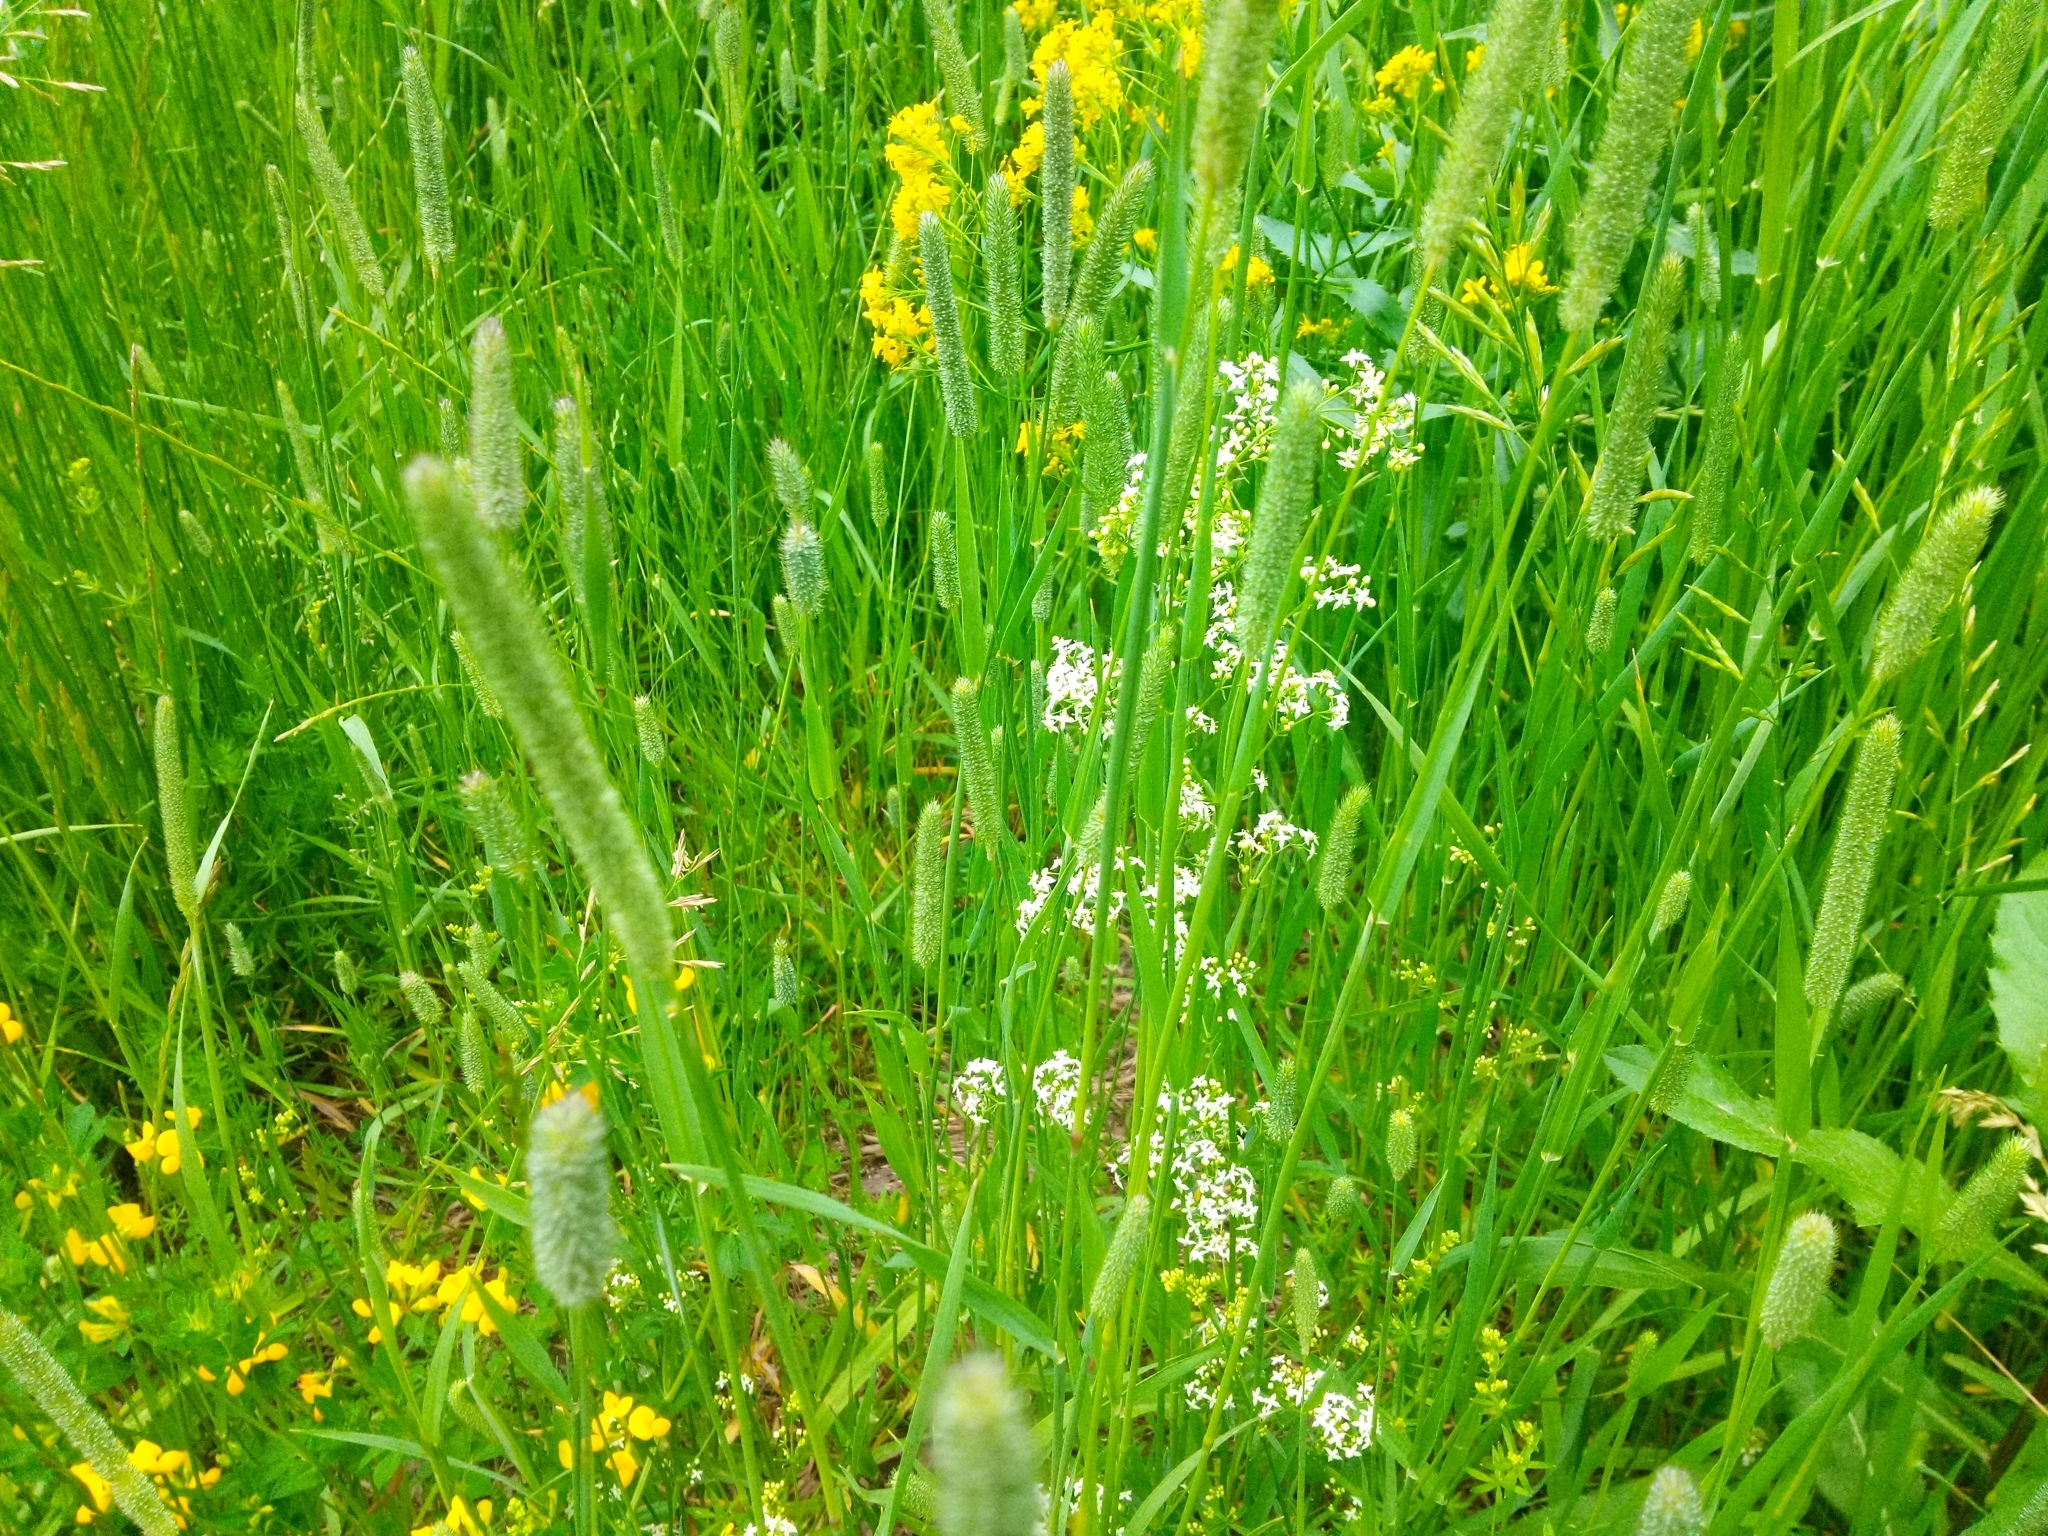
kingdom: Plantae
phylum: Tracheophyta
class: Magnoliopsida
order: Gentianales
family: Rubiaceae
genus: Galium
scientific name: Galium mollugo
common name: Hedge bedstraw
